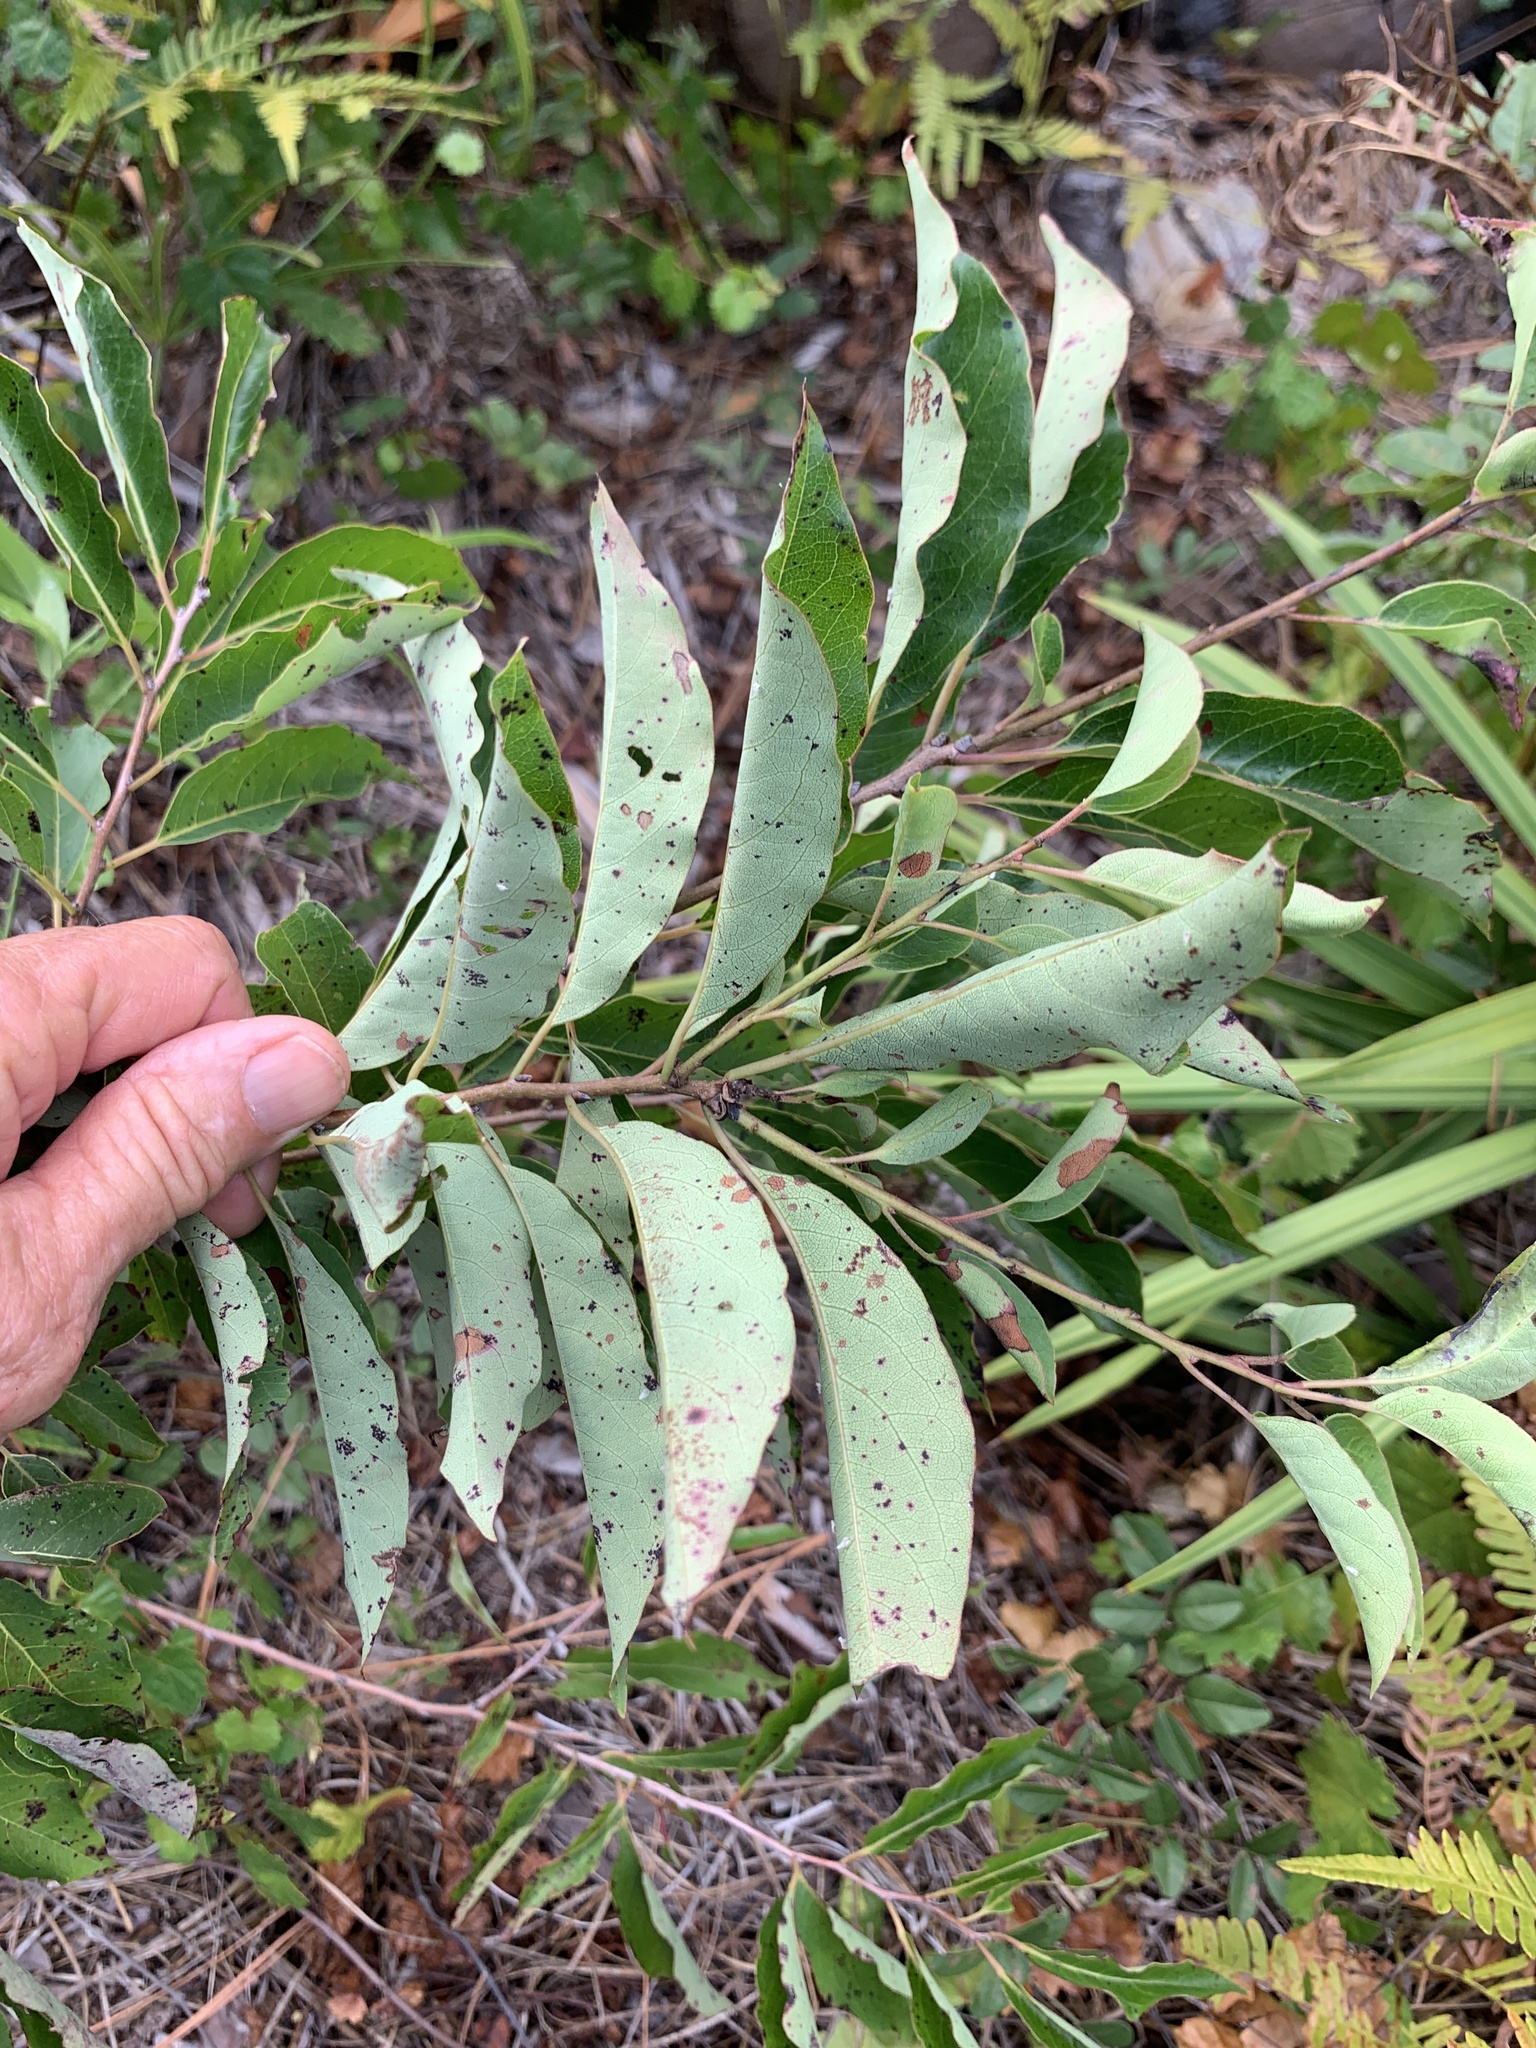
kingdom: Plantae
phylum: Tracheophyta
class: Magnoliopsida
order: Ericales
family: Ebenaceae
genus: Diospyros
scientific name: Diospyros virginiana
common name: Persimmon
